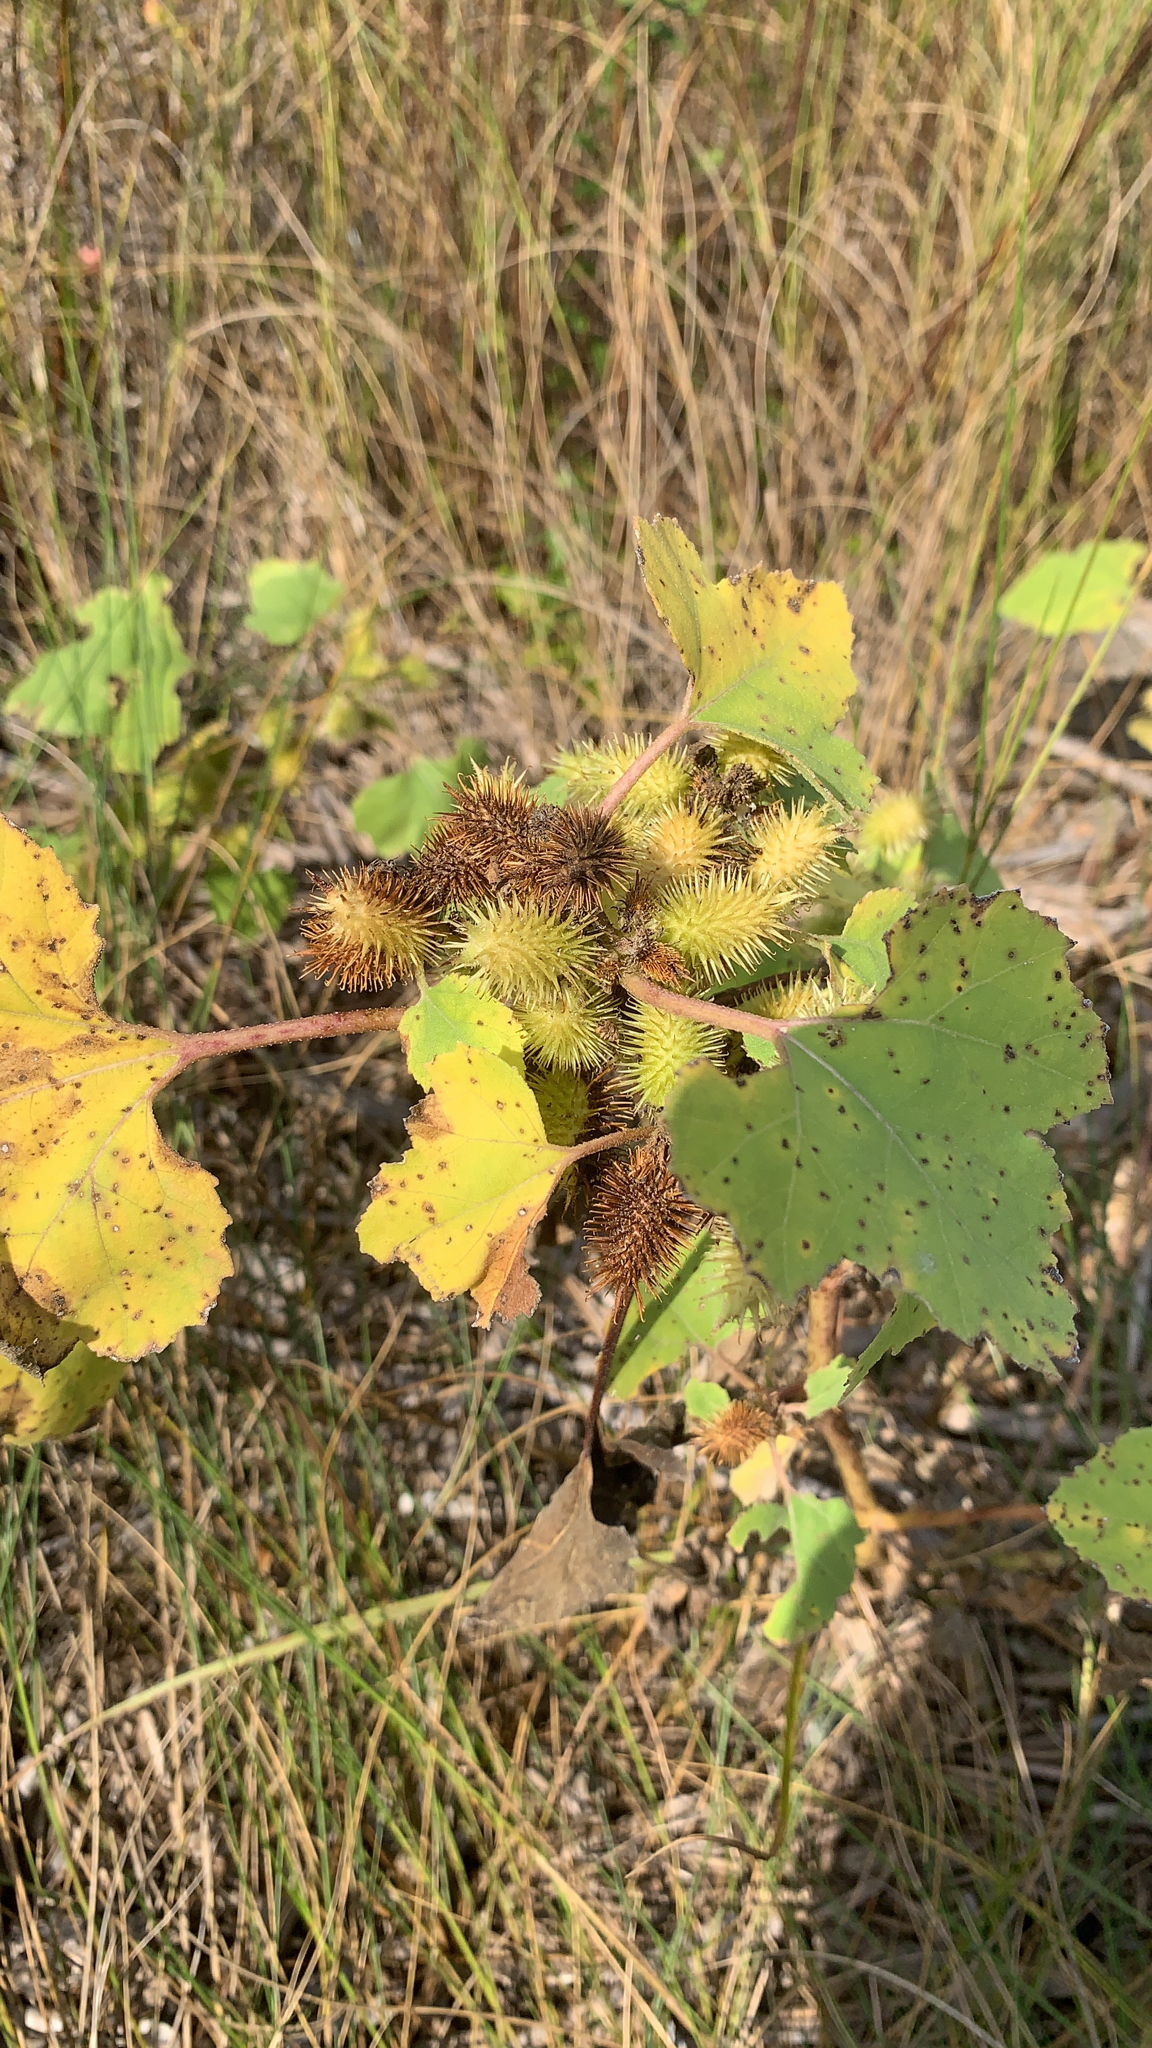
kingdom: Plantae
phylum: Tracheophyta
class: Magnoliopsida
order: Asterales
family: Asteraceae
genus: Xanthium
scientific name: Xanthium strumarium
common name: Rough cocklebur
